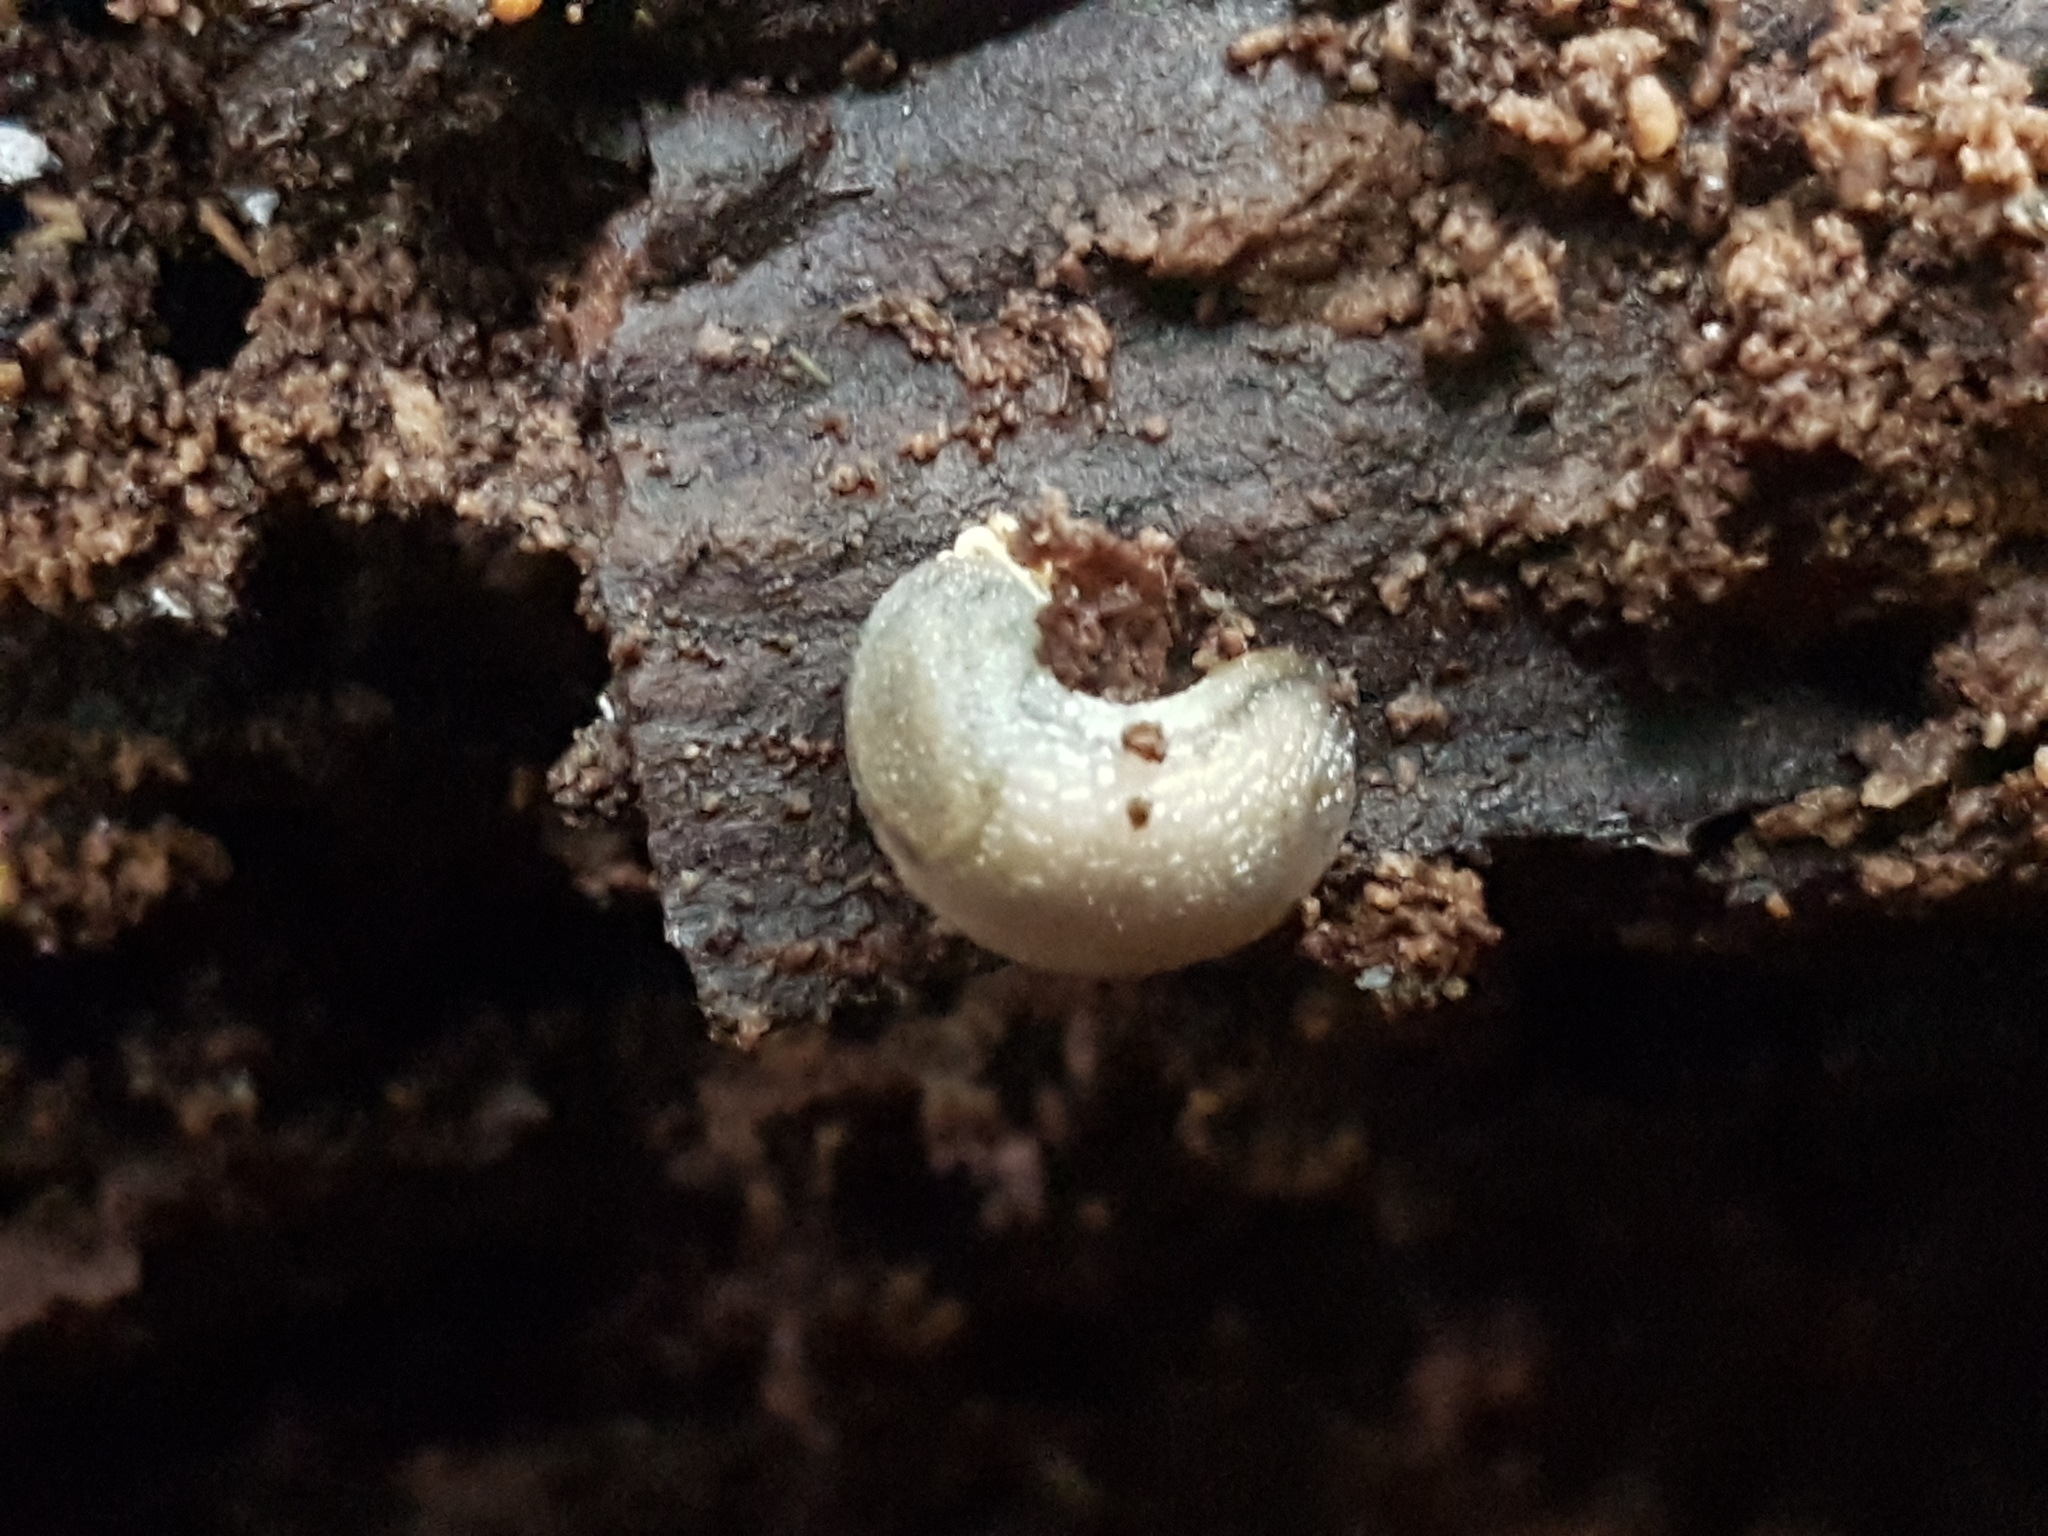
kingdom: Animalia
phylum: Mollusca
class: Gastropoda
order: Stylommatophora
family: Arionidae
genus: Arion
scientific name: Arion intermedius
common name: Hedgehog slug
